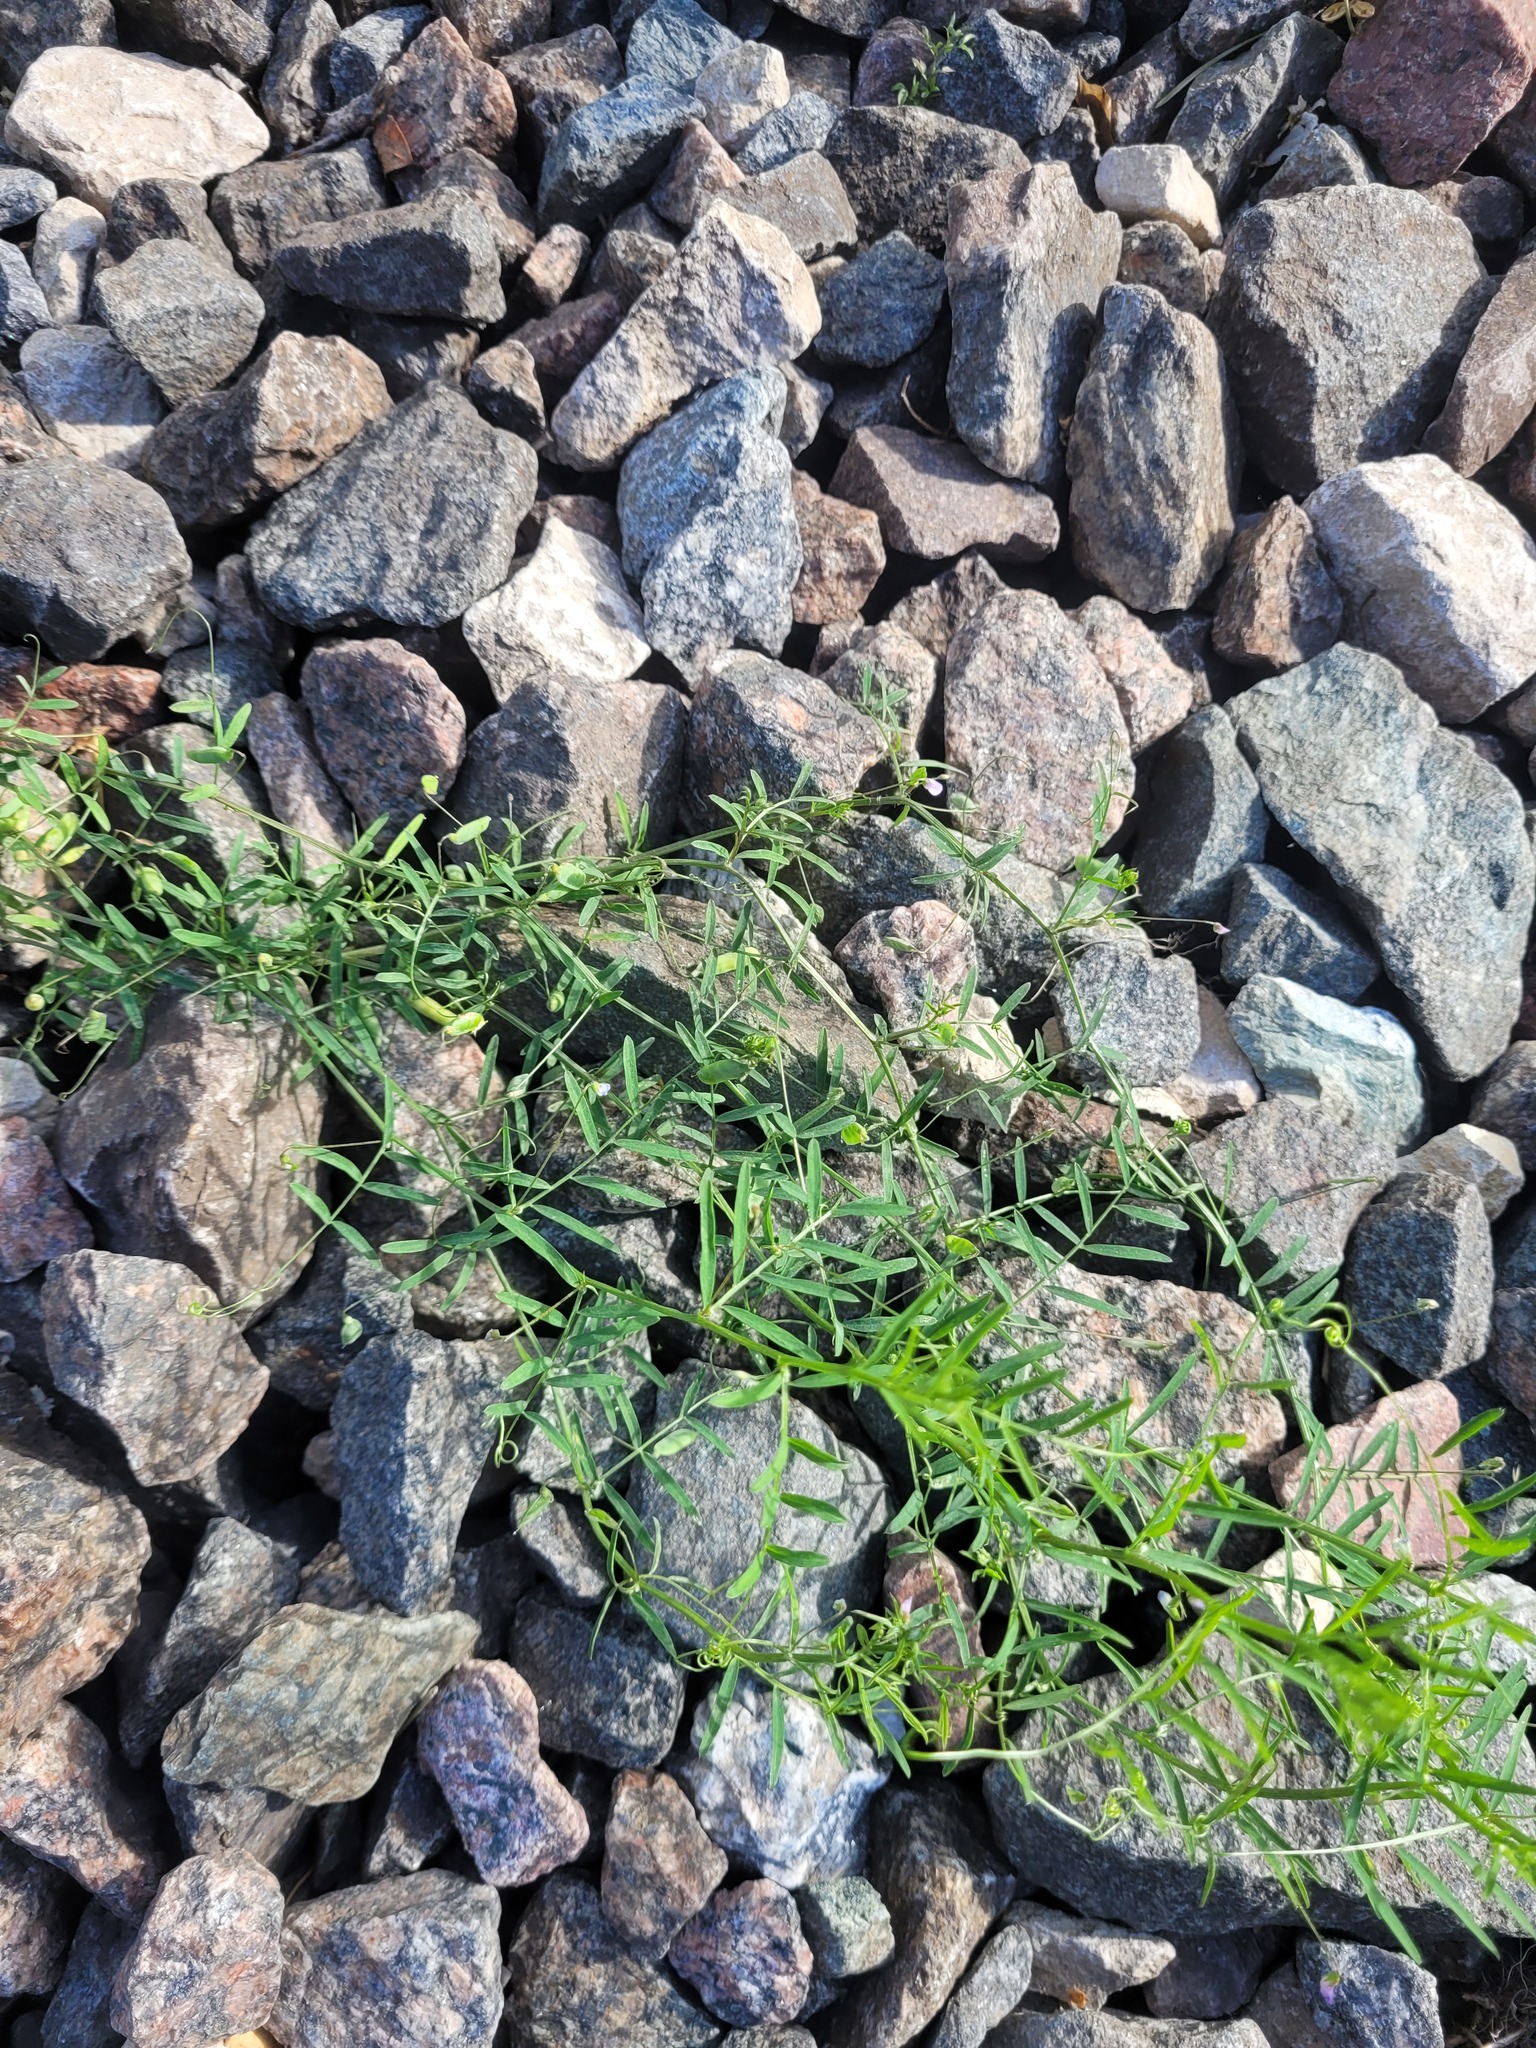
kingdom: Plantae
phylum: Tracheophyta
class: Magnoliopsida
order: Fabales
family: Fabaceae
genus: Vicia
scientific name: Vicia tetrasperma
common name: Smooth tare
